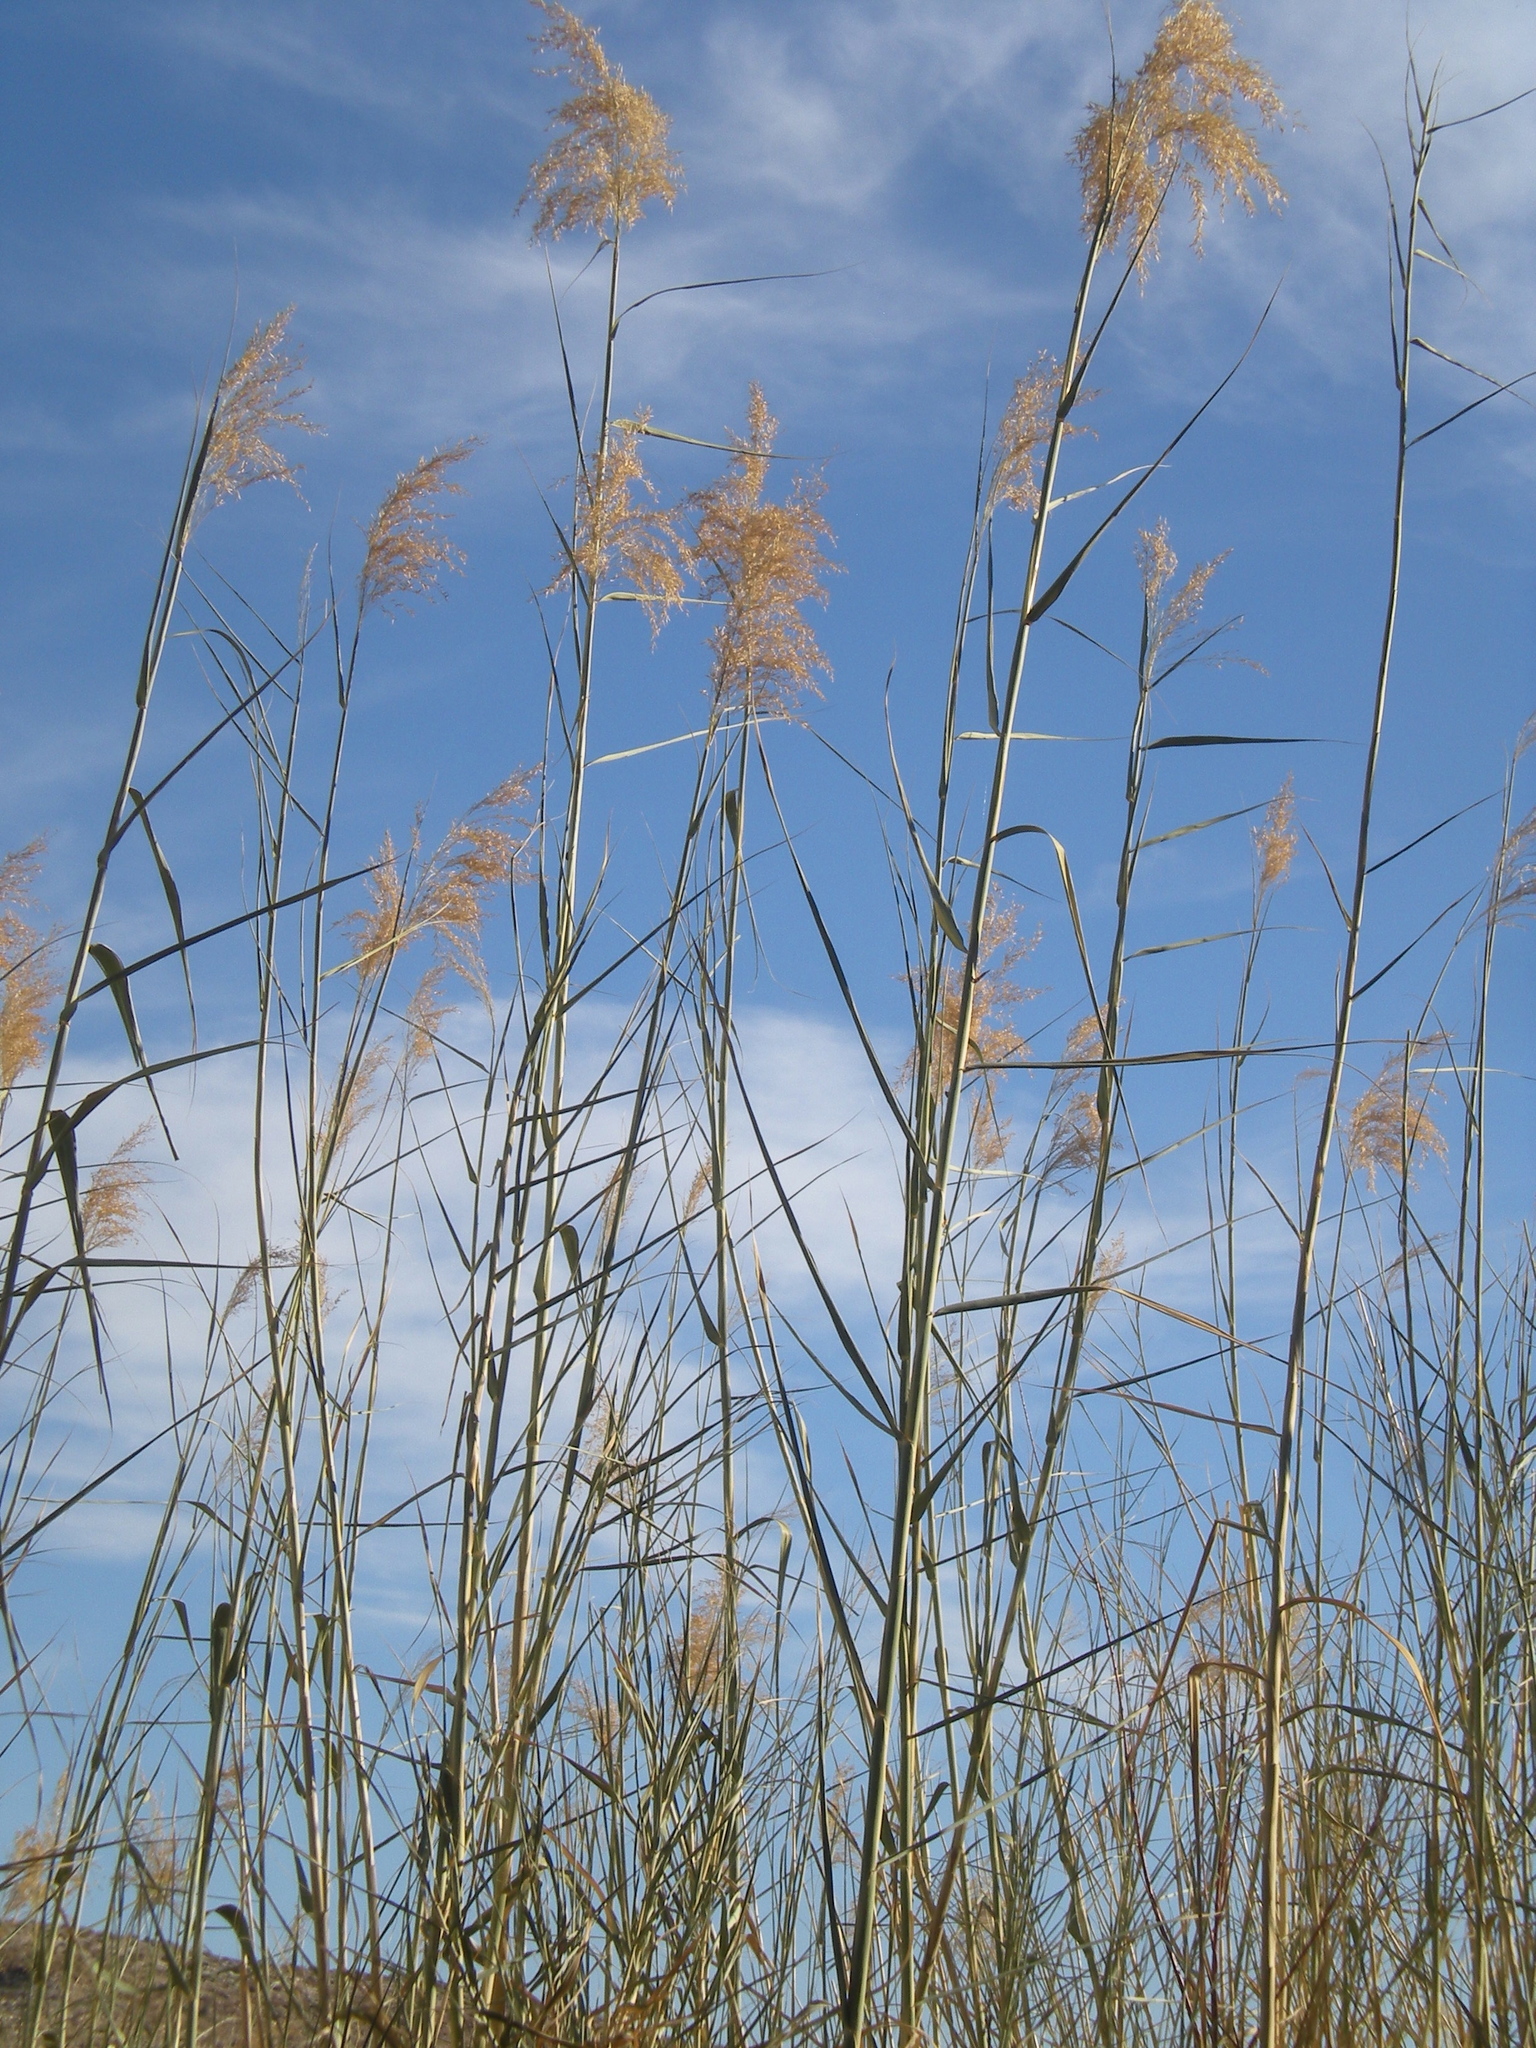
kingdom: Plantae
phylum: Tracheophyta
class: Liliopsida
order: Poales
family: Poaceae
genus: Phragmites
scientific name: Phragmites australis
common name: Common reed
